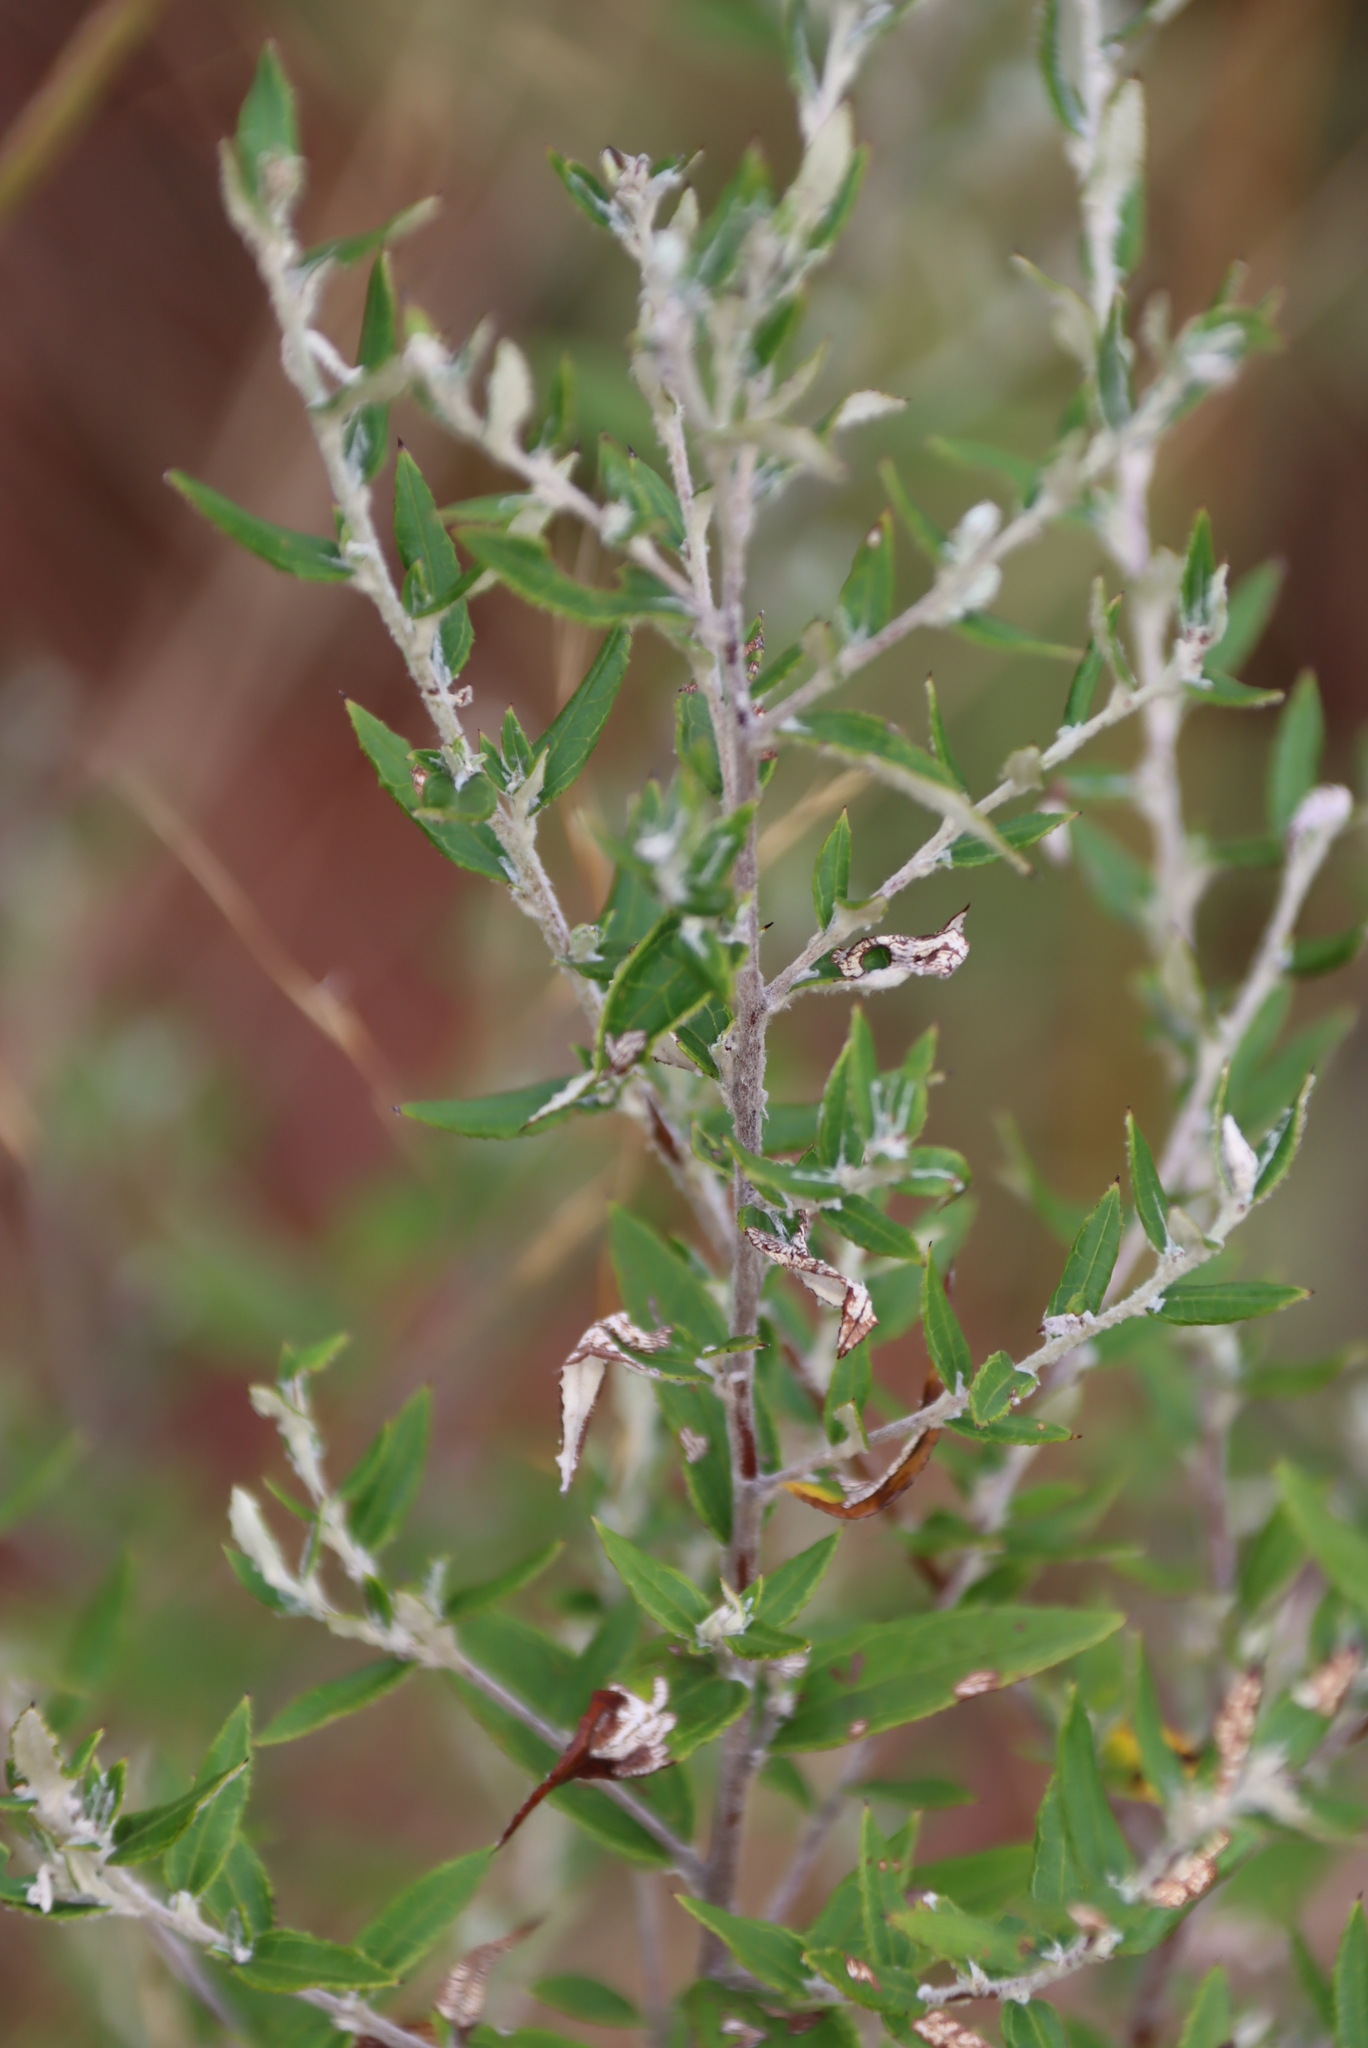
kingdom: Plantae
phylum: Tracheophyta
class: Magnoliopsida
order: Asterales
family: Asteraceae
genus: Athrixia
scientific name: Athrixia phylicoides
